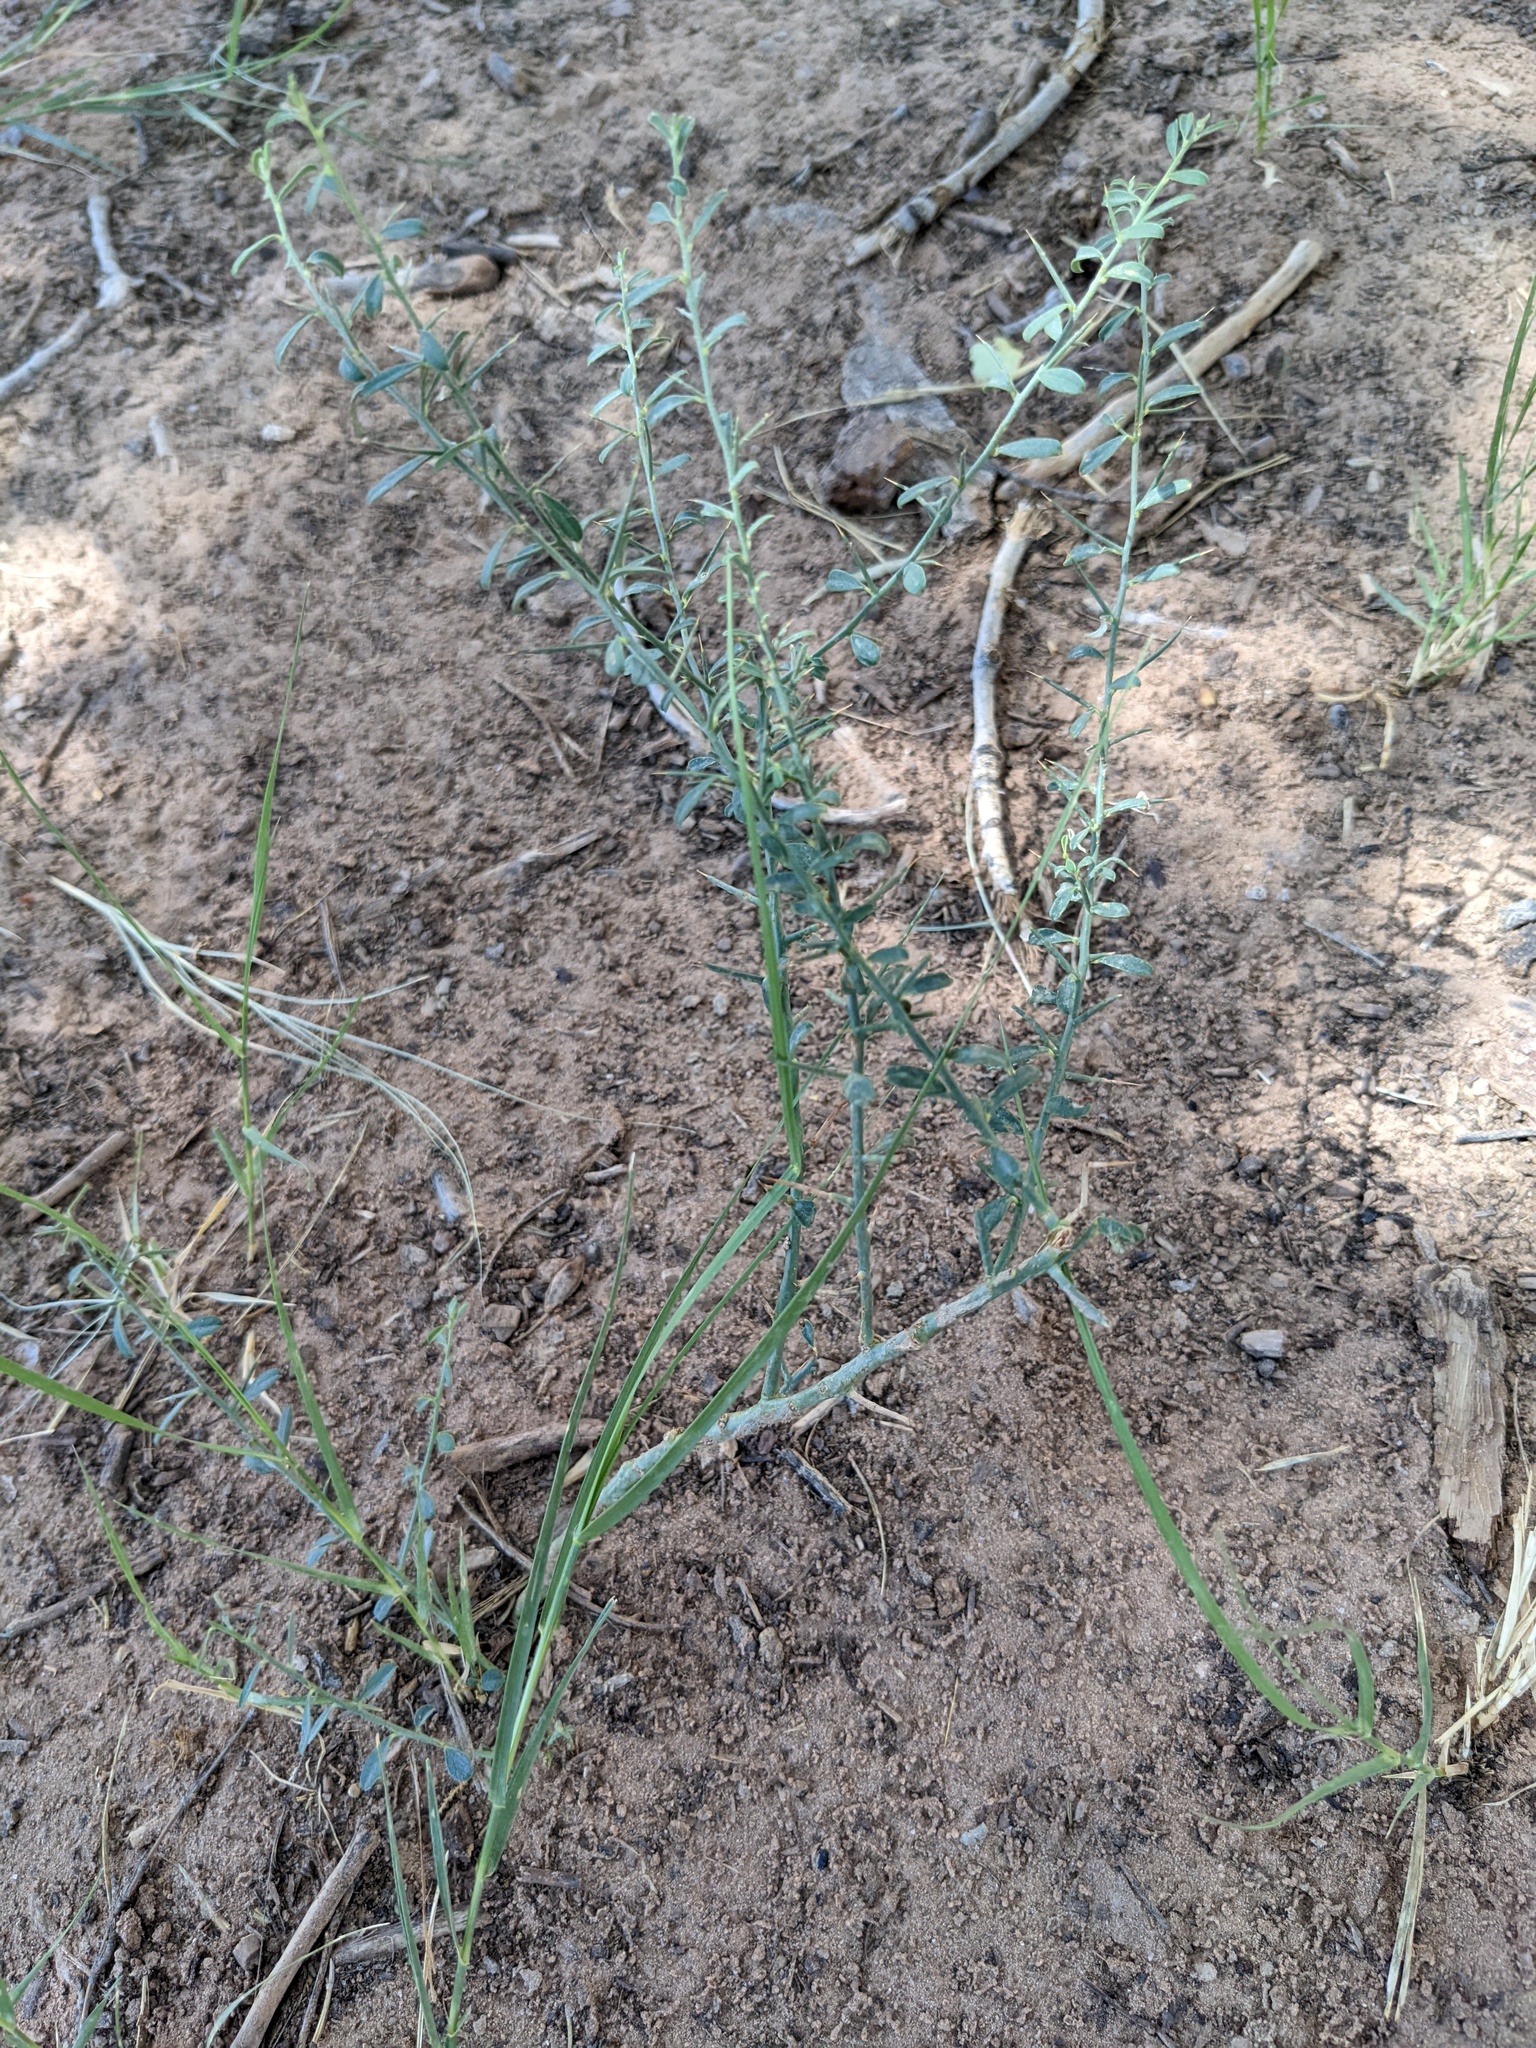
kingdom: Plantae
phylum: Tracheophyta
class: Magnoliopsida
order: Fabales
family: Fabaceae
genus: Alhagi
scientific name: Alhagi maurorum
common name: Camelthorn
